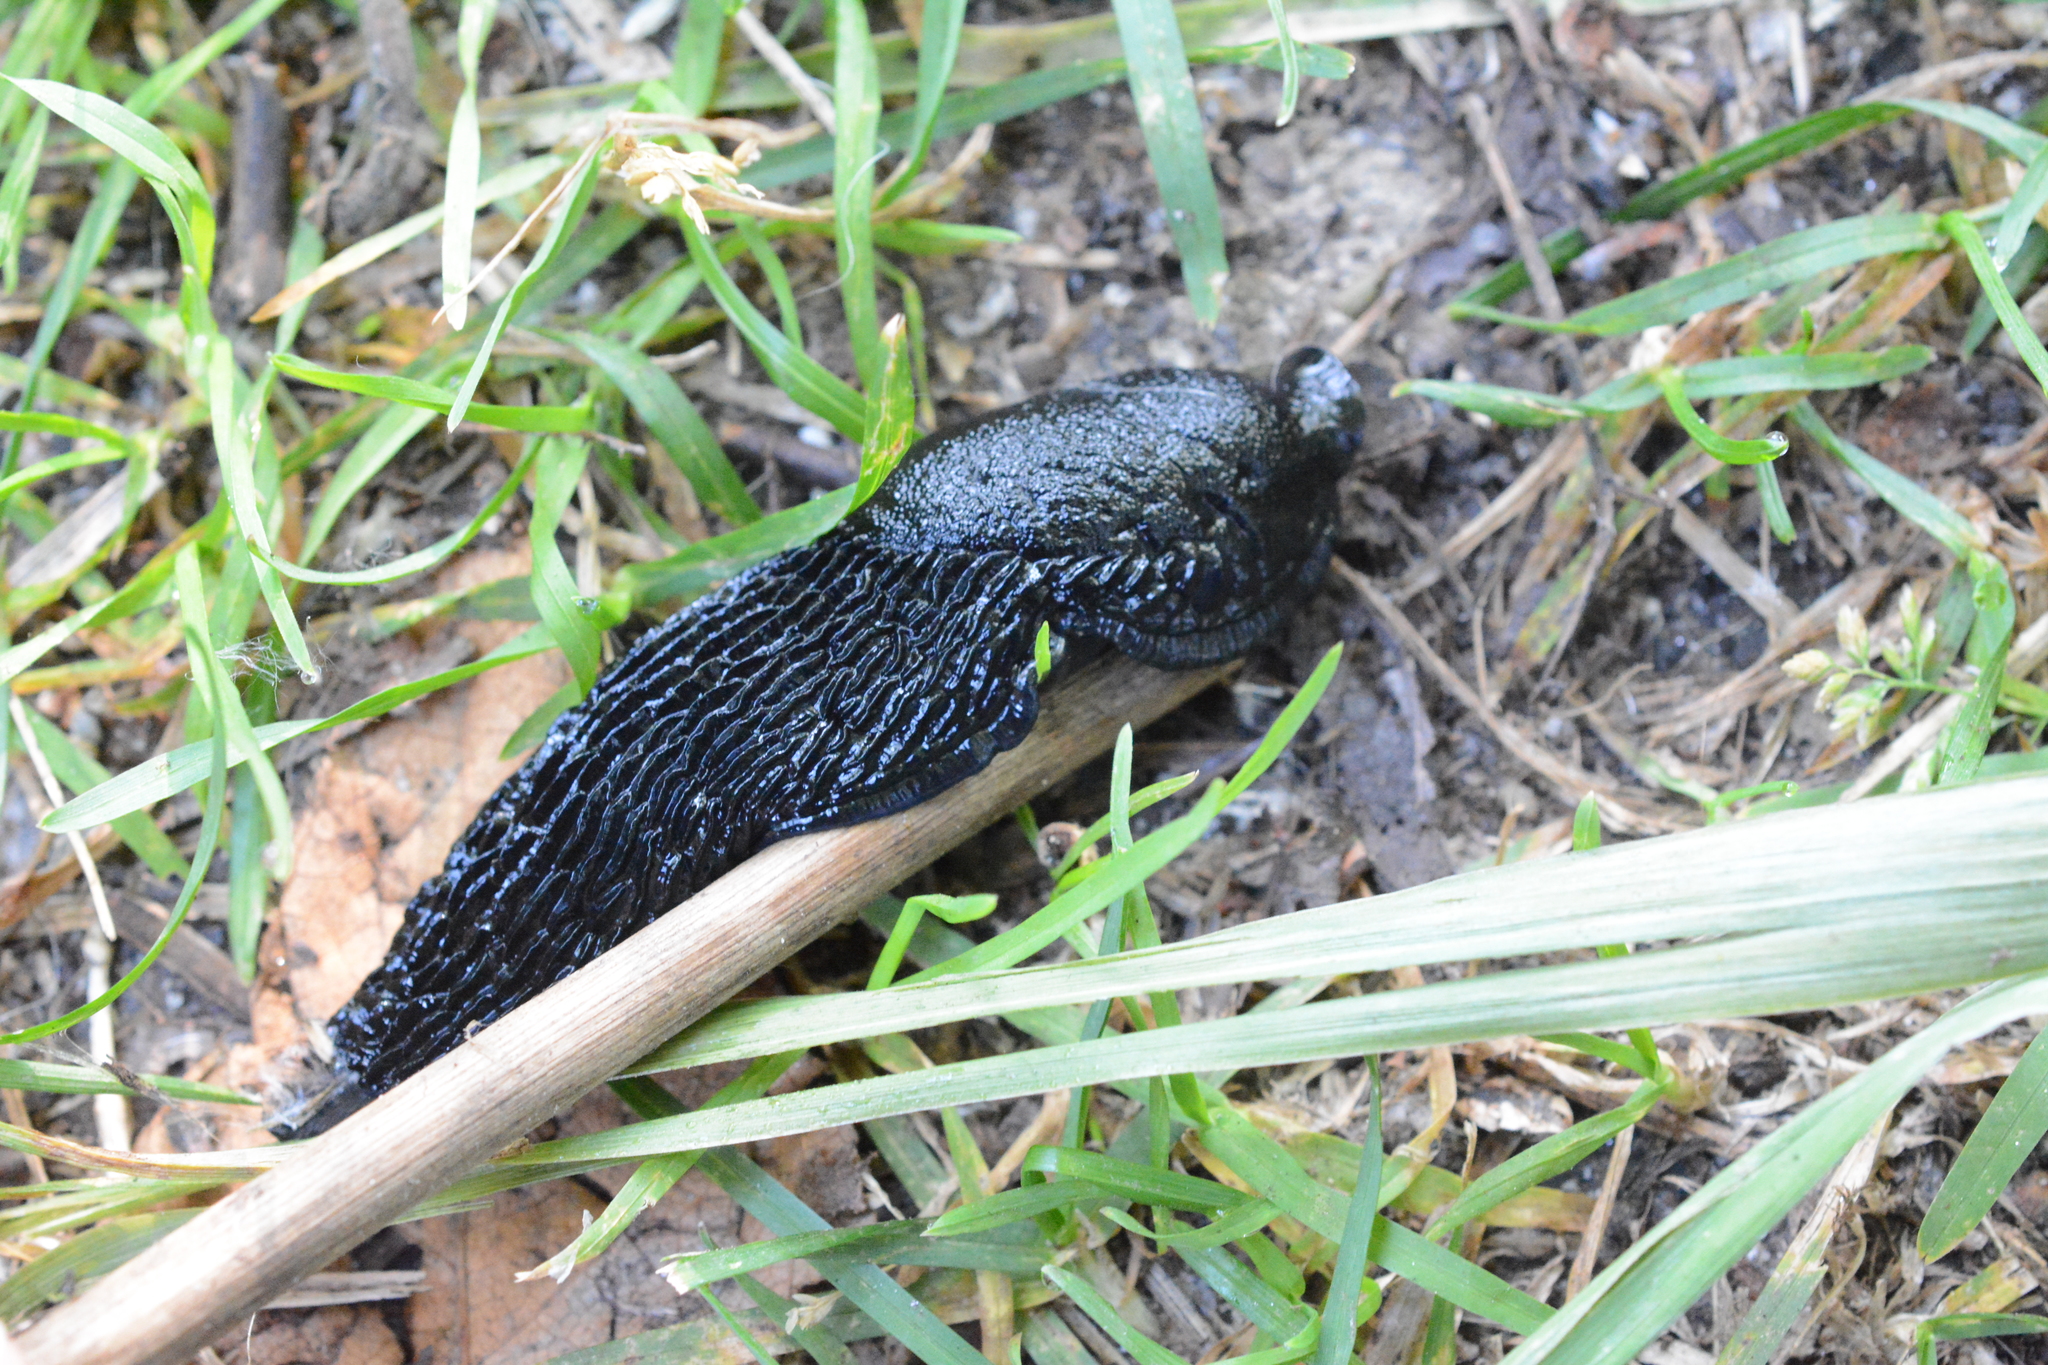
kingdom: Animalia
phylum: Mollusca
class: Gastropoda
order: Stylommatophora
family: Arionidae
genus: Arion
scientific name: Arion
